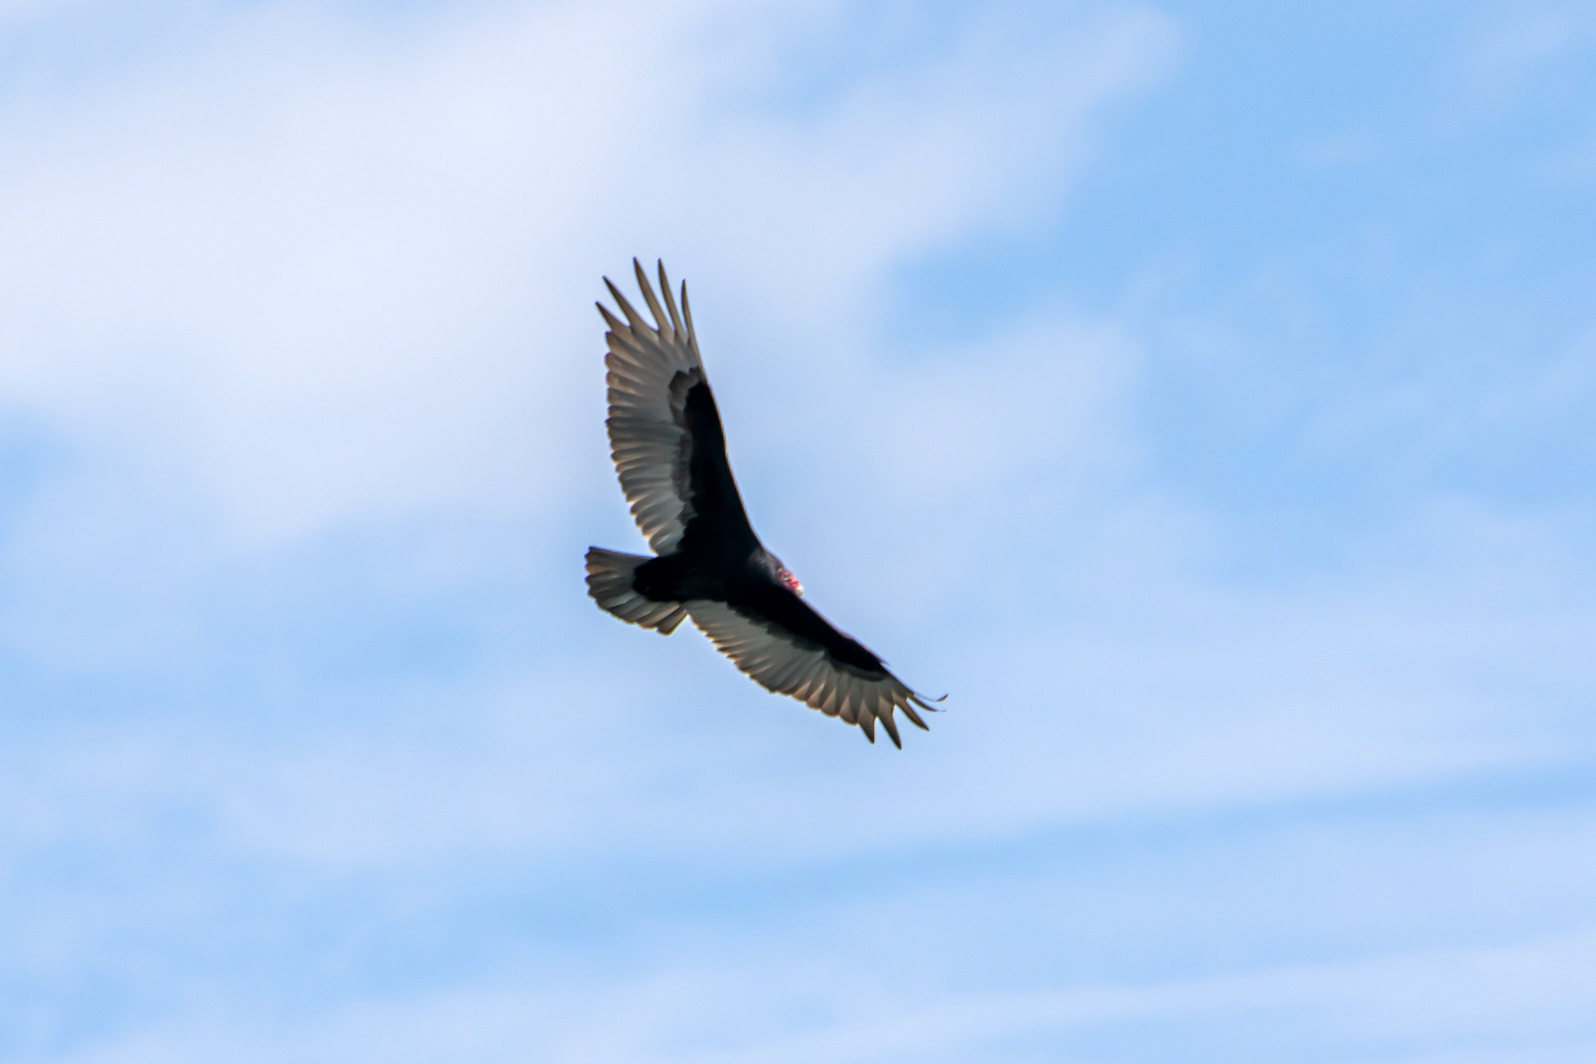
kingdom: Animalia
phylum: Chordata
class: Aves
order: Accipitriformes
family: Cathartidae
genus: Cathartes
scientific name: Cathartes aura
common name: Turkey vulture
